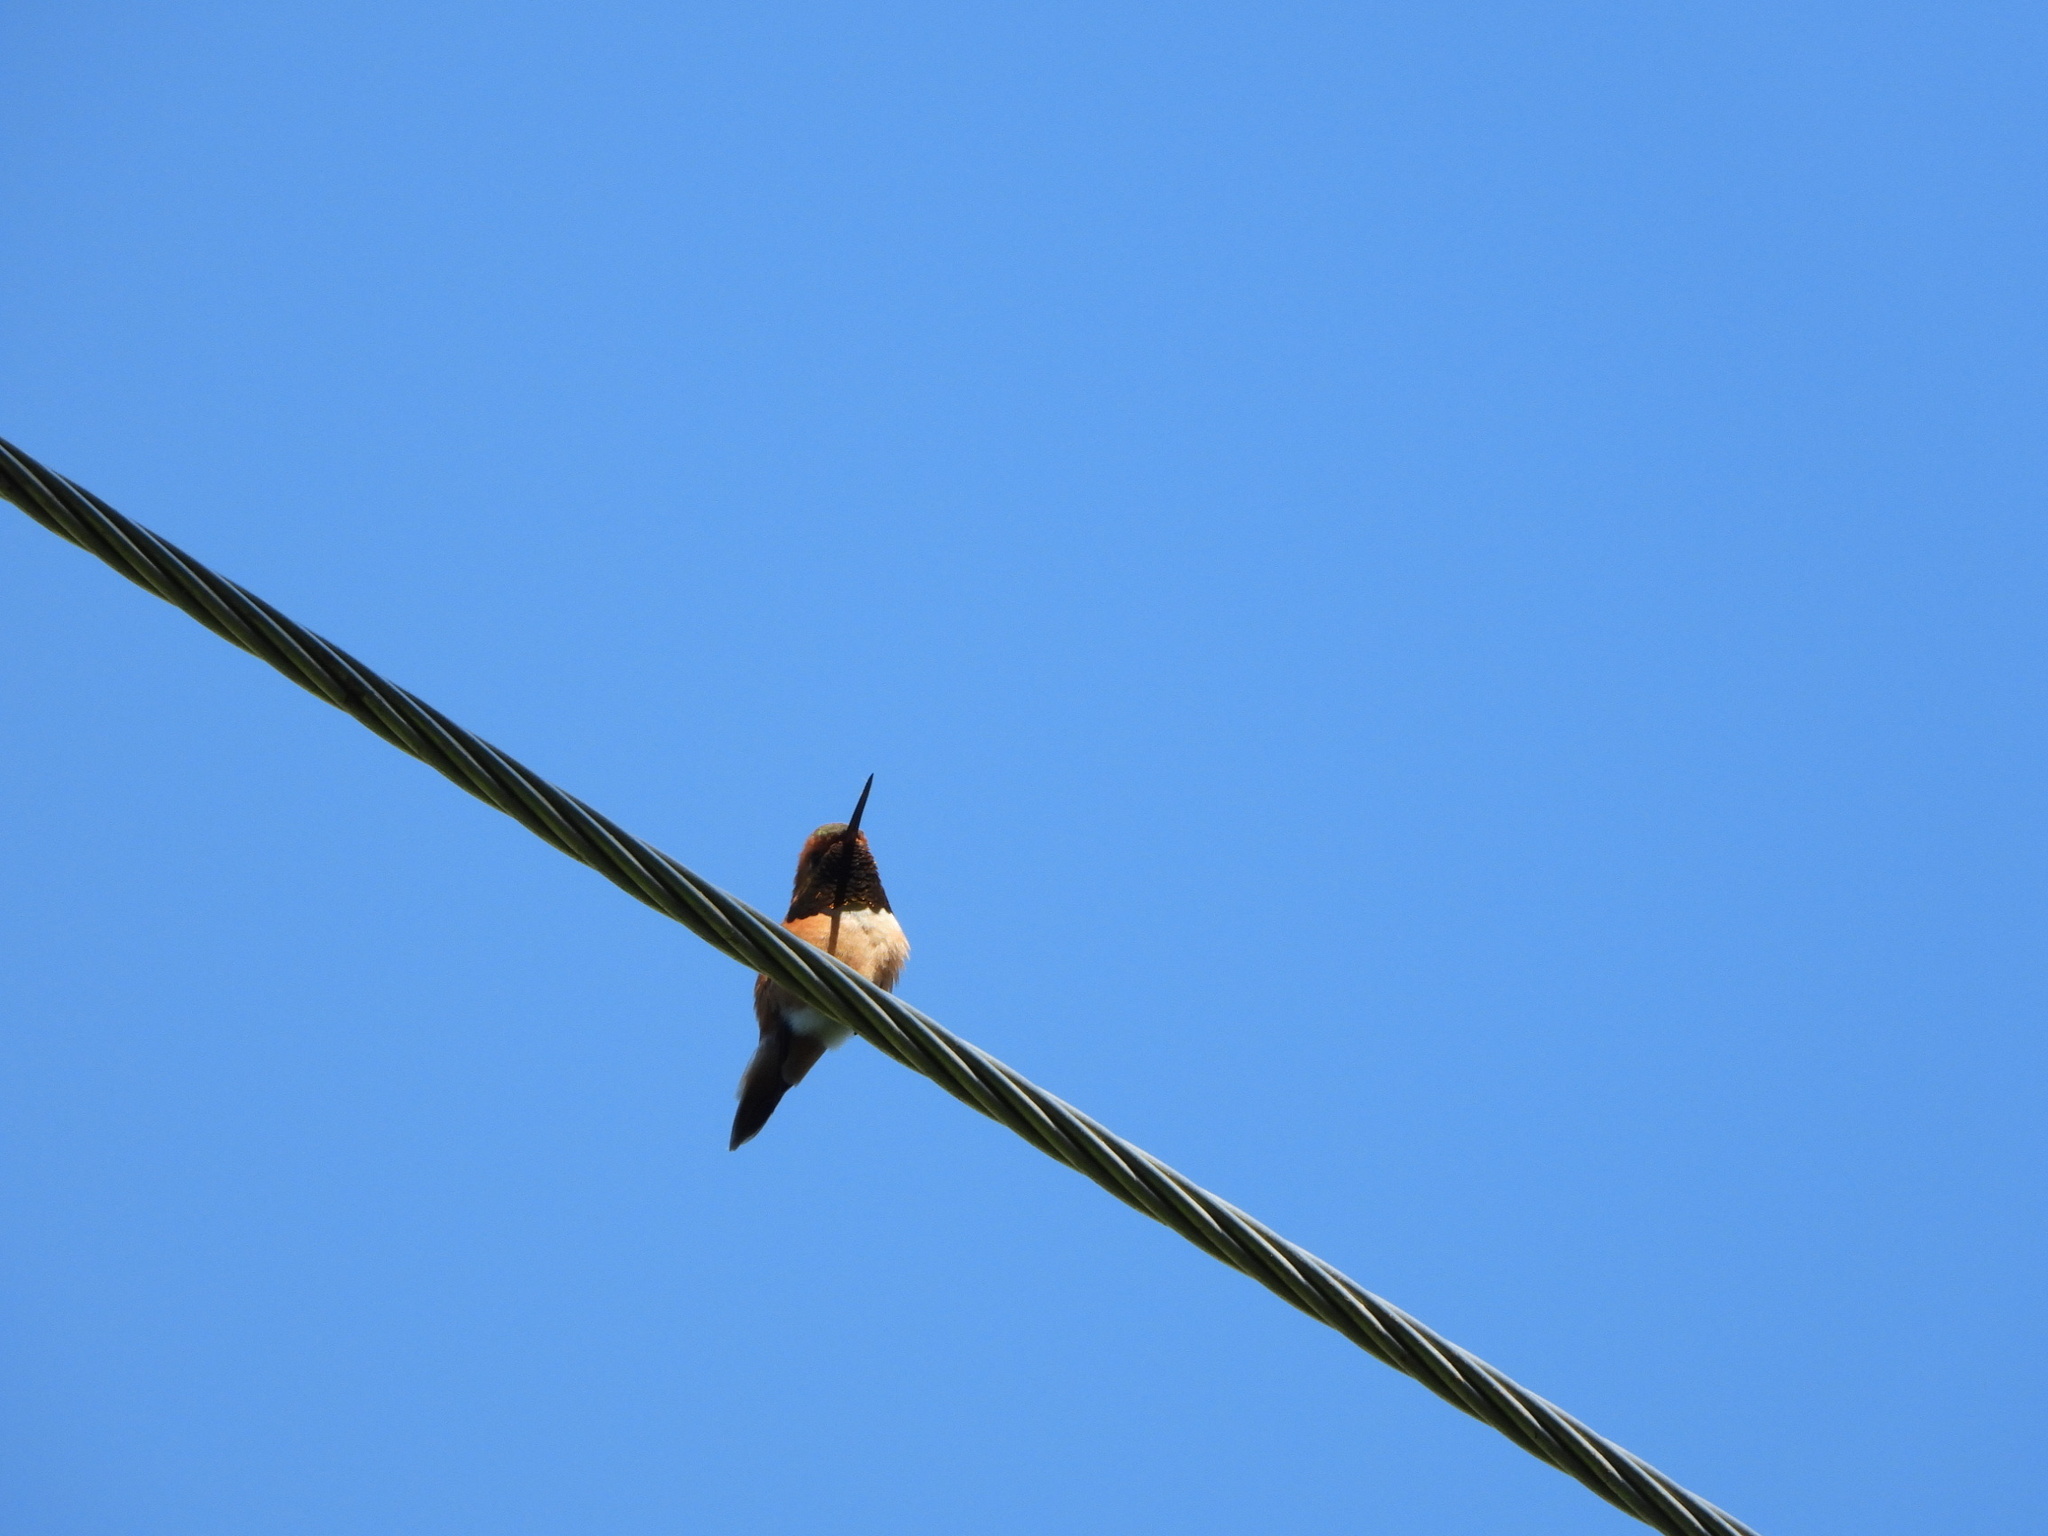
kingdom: Animalia
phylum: Chordata
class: Aves
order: Apodiformes
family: Trochilidae
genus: Selasphorus
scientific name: Selasphorus rufus
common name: Rufous hummingbird
